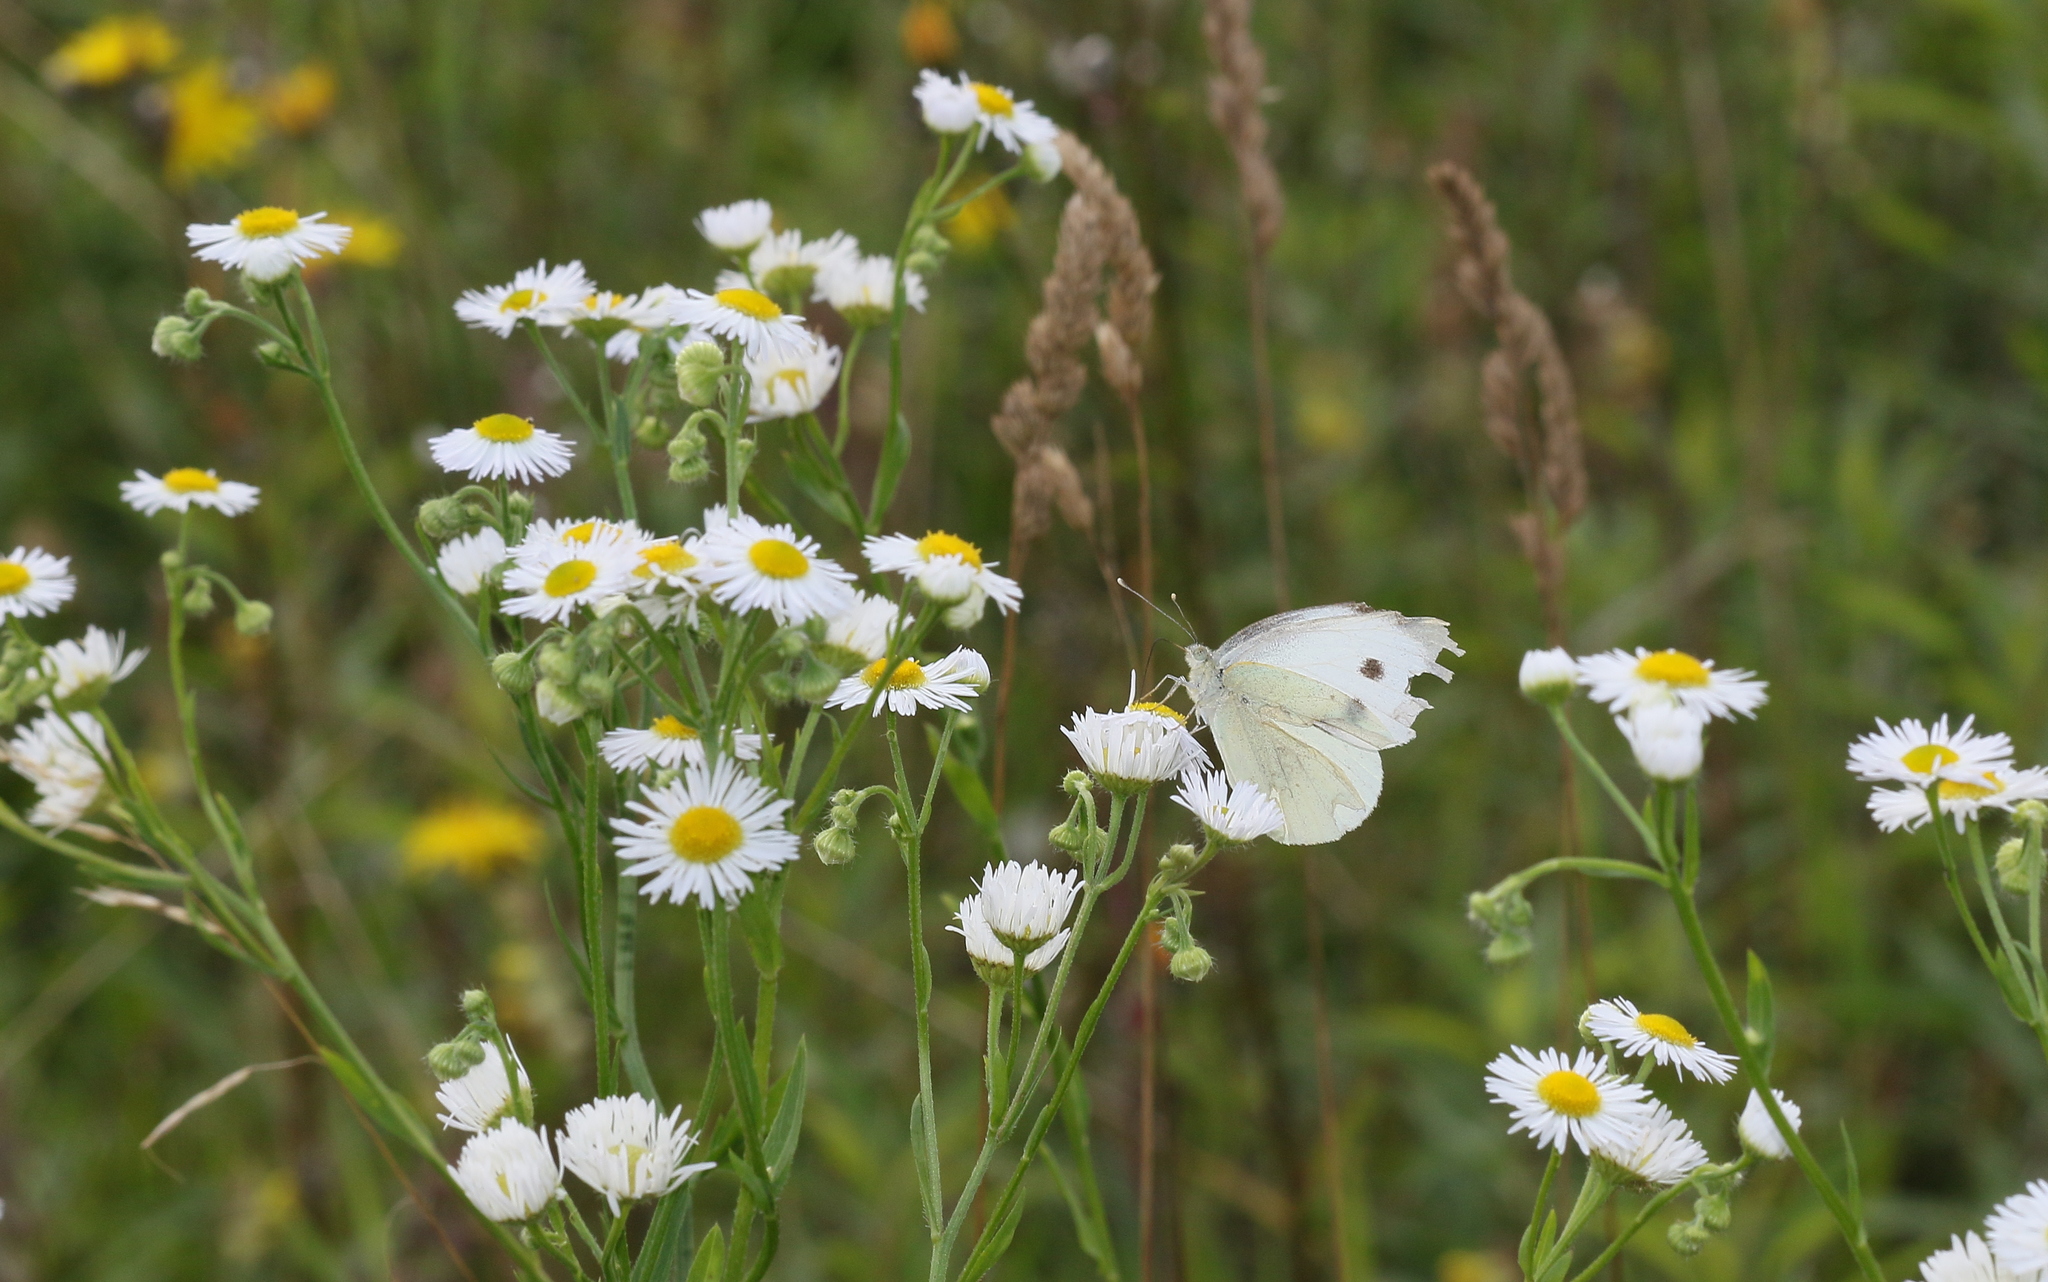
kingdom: Animalia
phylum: Arthropoda
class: Insecta
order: Lepidoptera
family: Pieridae
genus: Pieris
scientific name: Pieris rapae
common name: Small white
